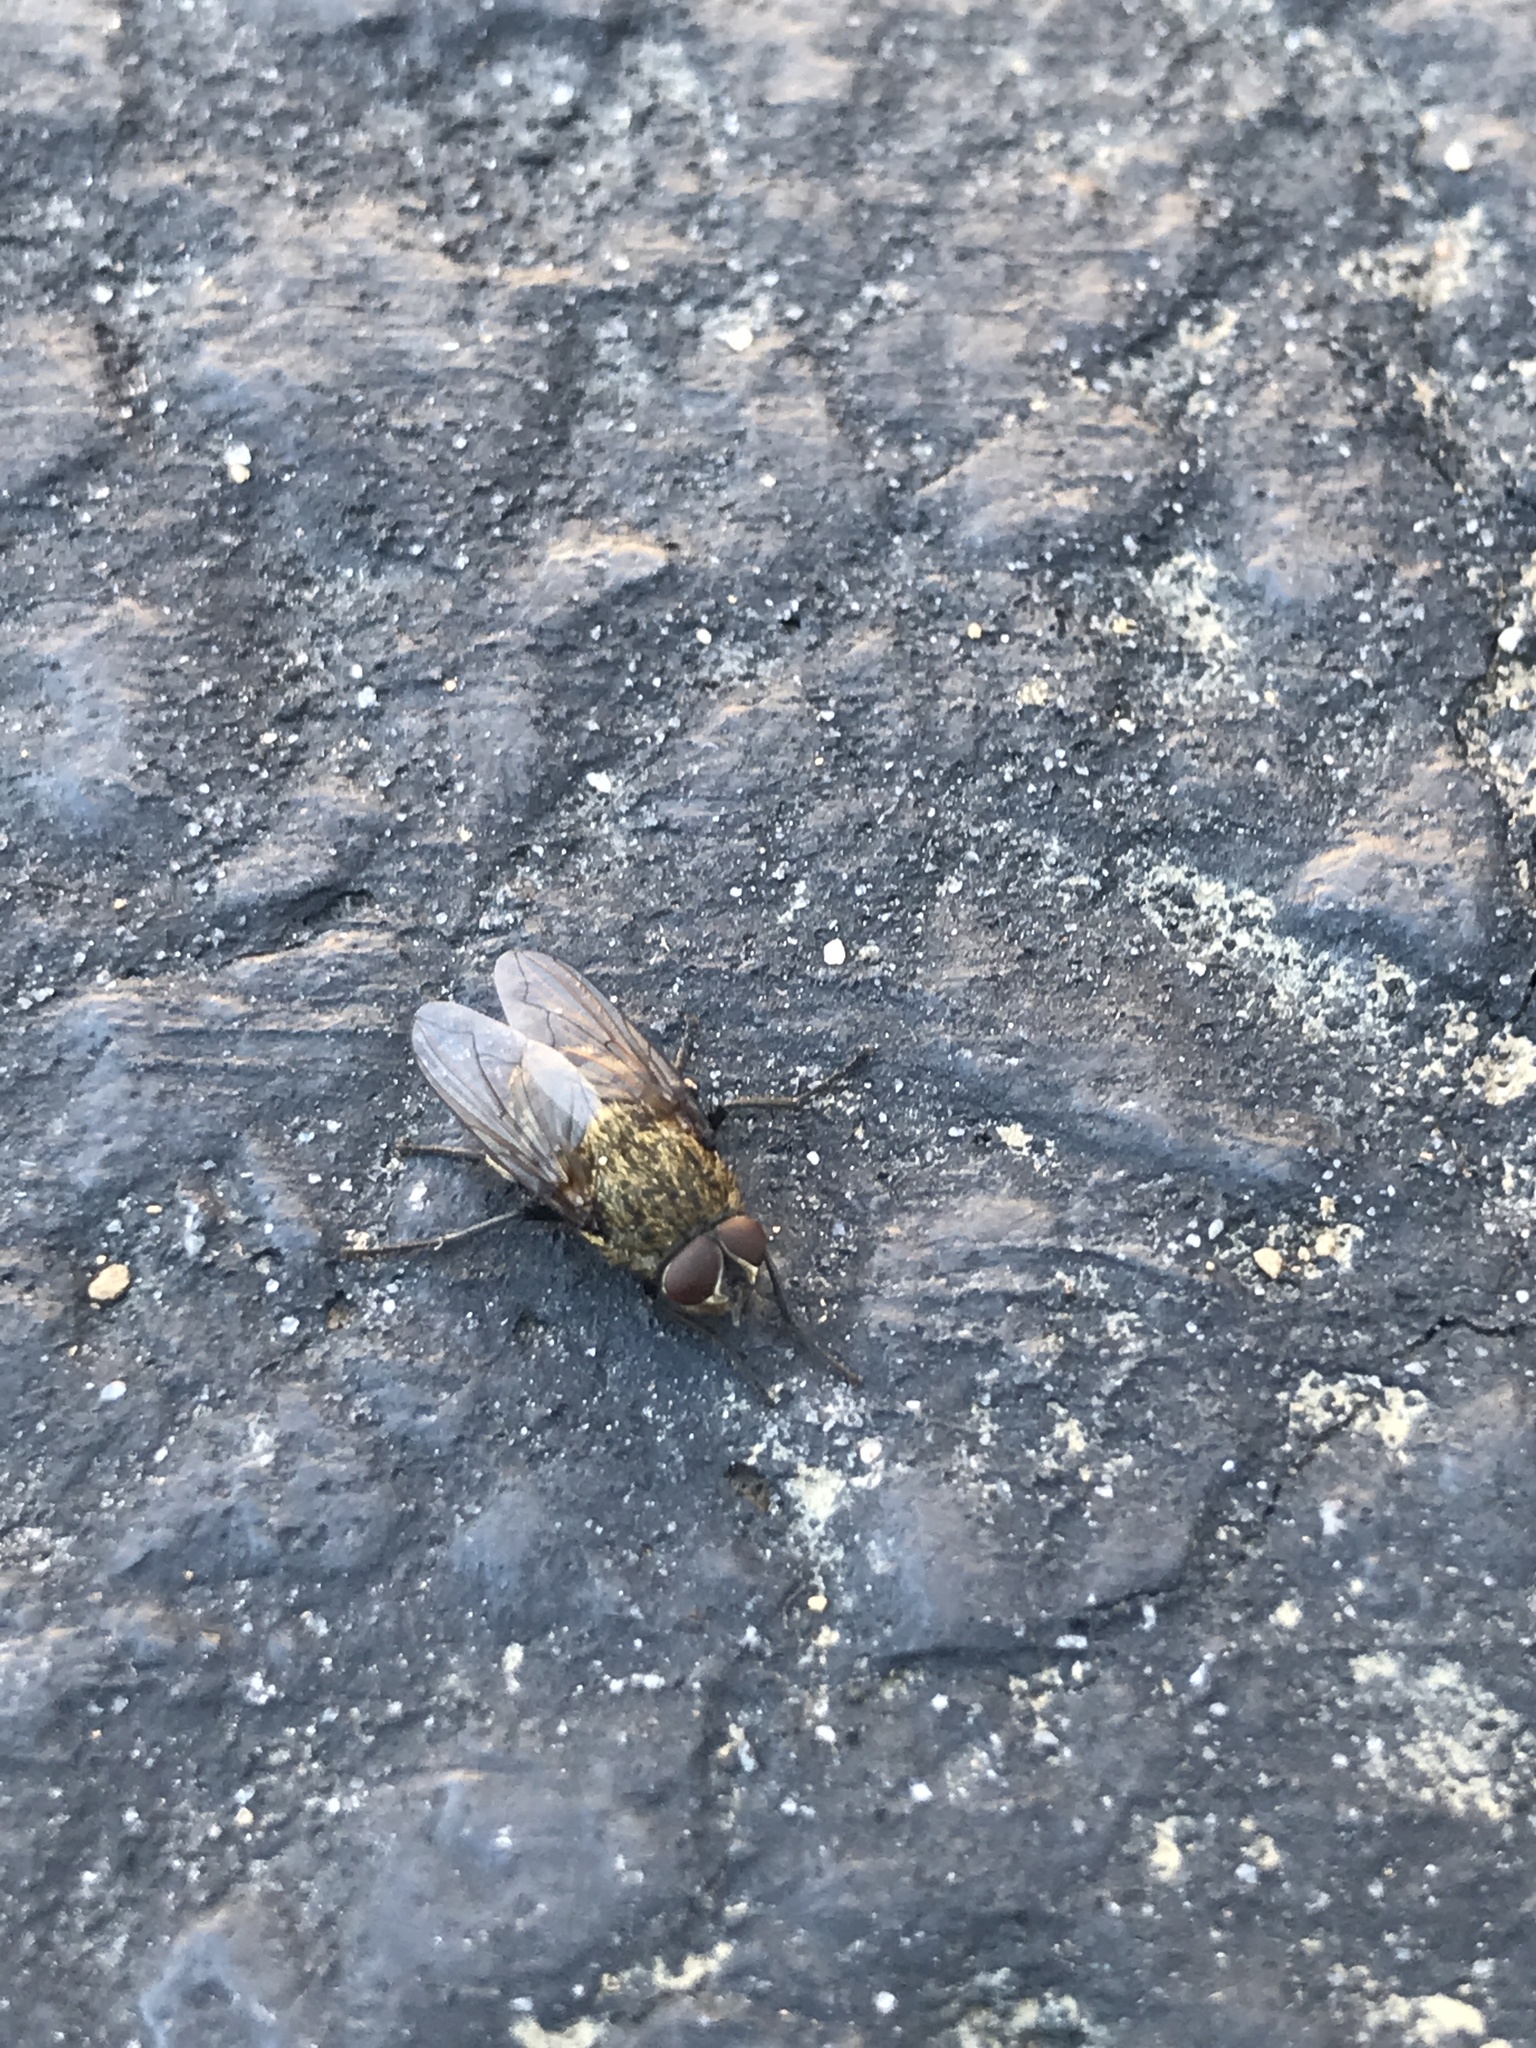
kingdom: Animalia
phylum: Arthropoda
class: Insecta
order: Diptera
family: Polleniidae
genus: Pollenia
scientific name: Pollenia
